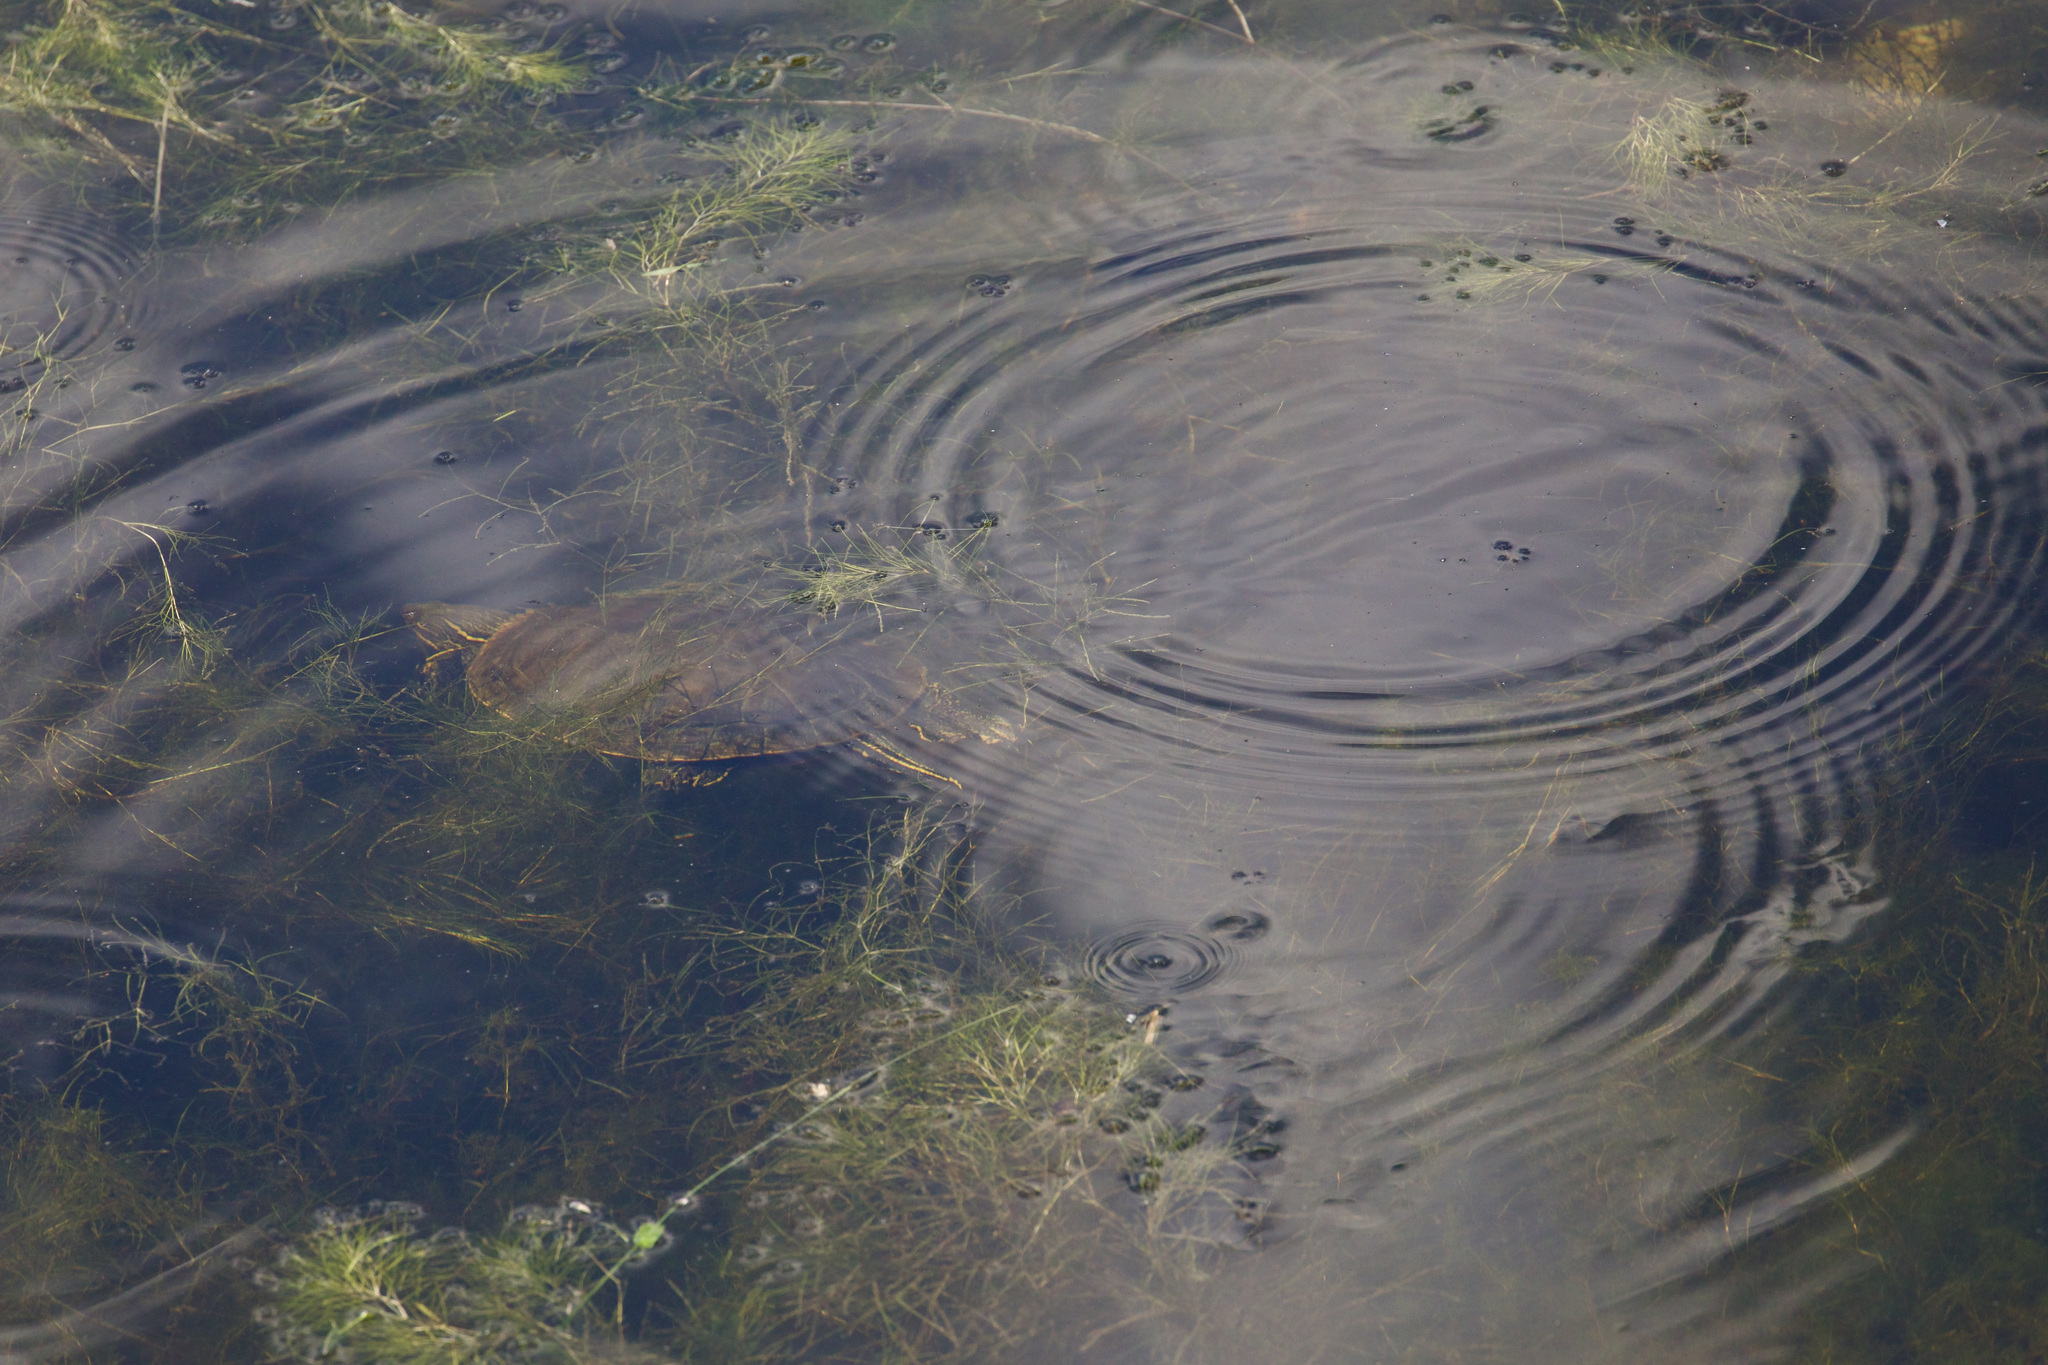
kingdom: Animalia
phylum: Chordata
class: Testudines
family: Emydidae
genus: Chrysemys
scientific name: Chrysemys picta
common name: Painted turtle
